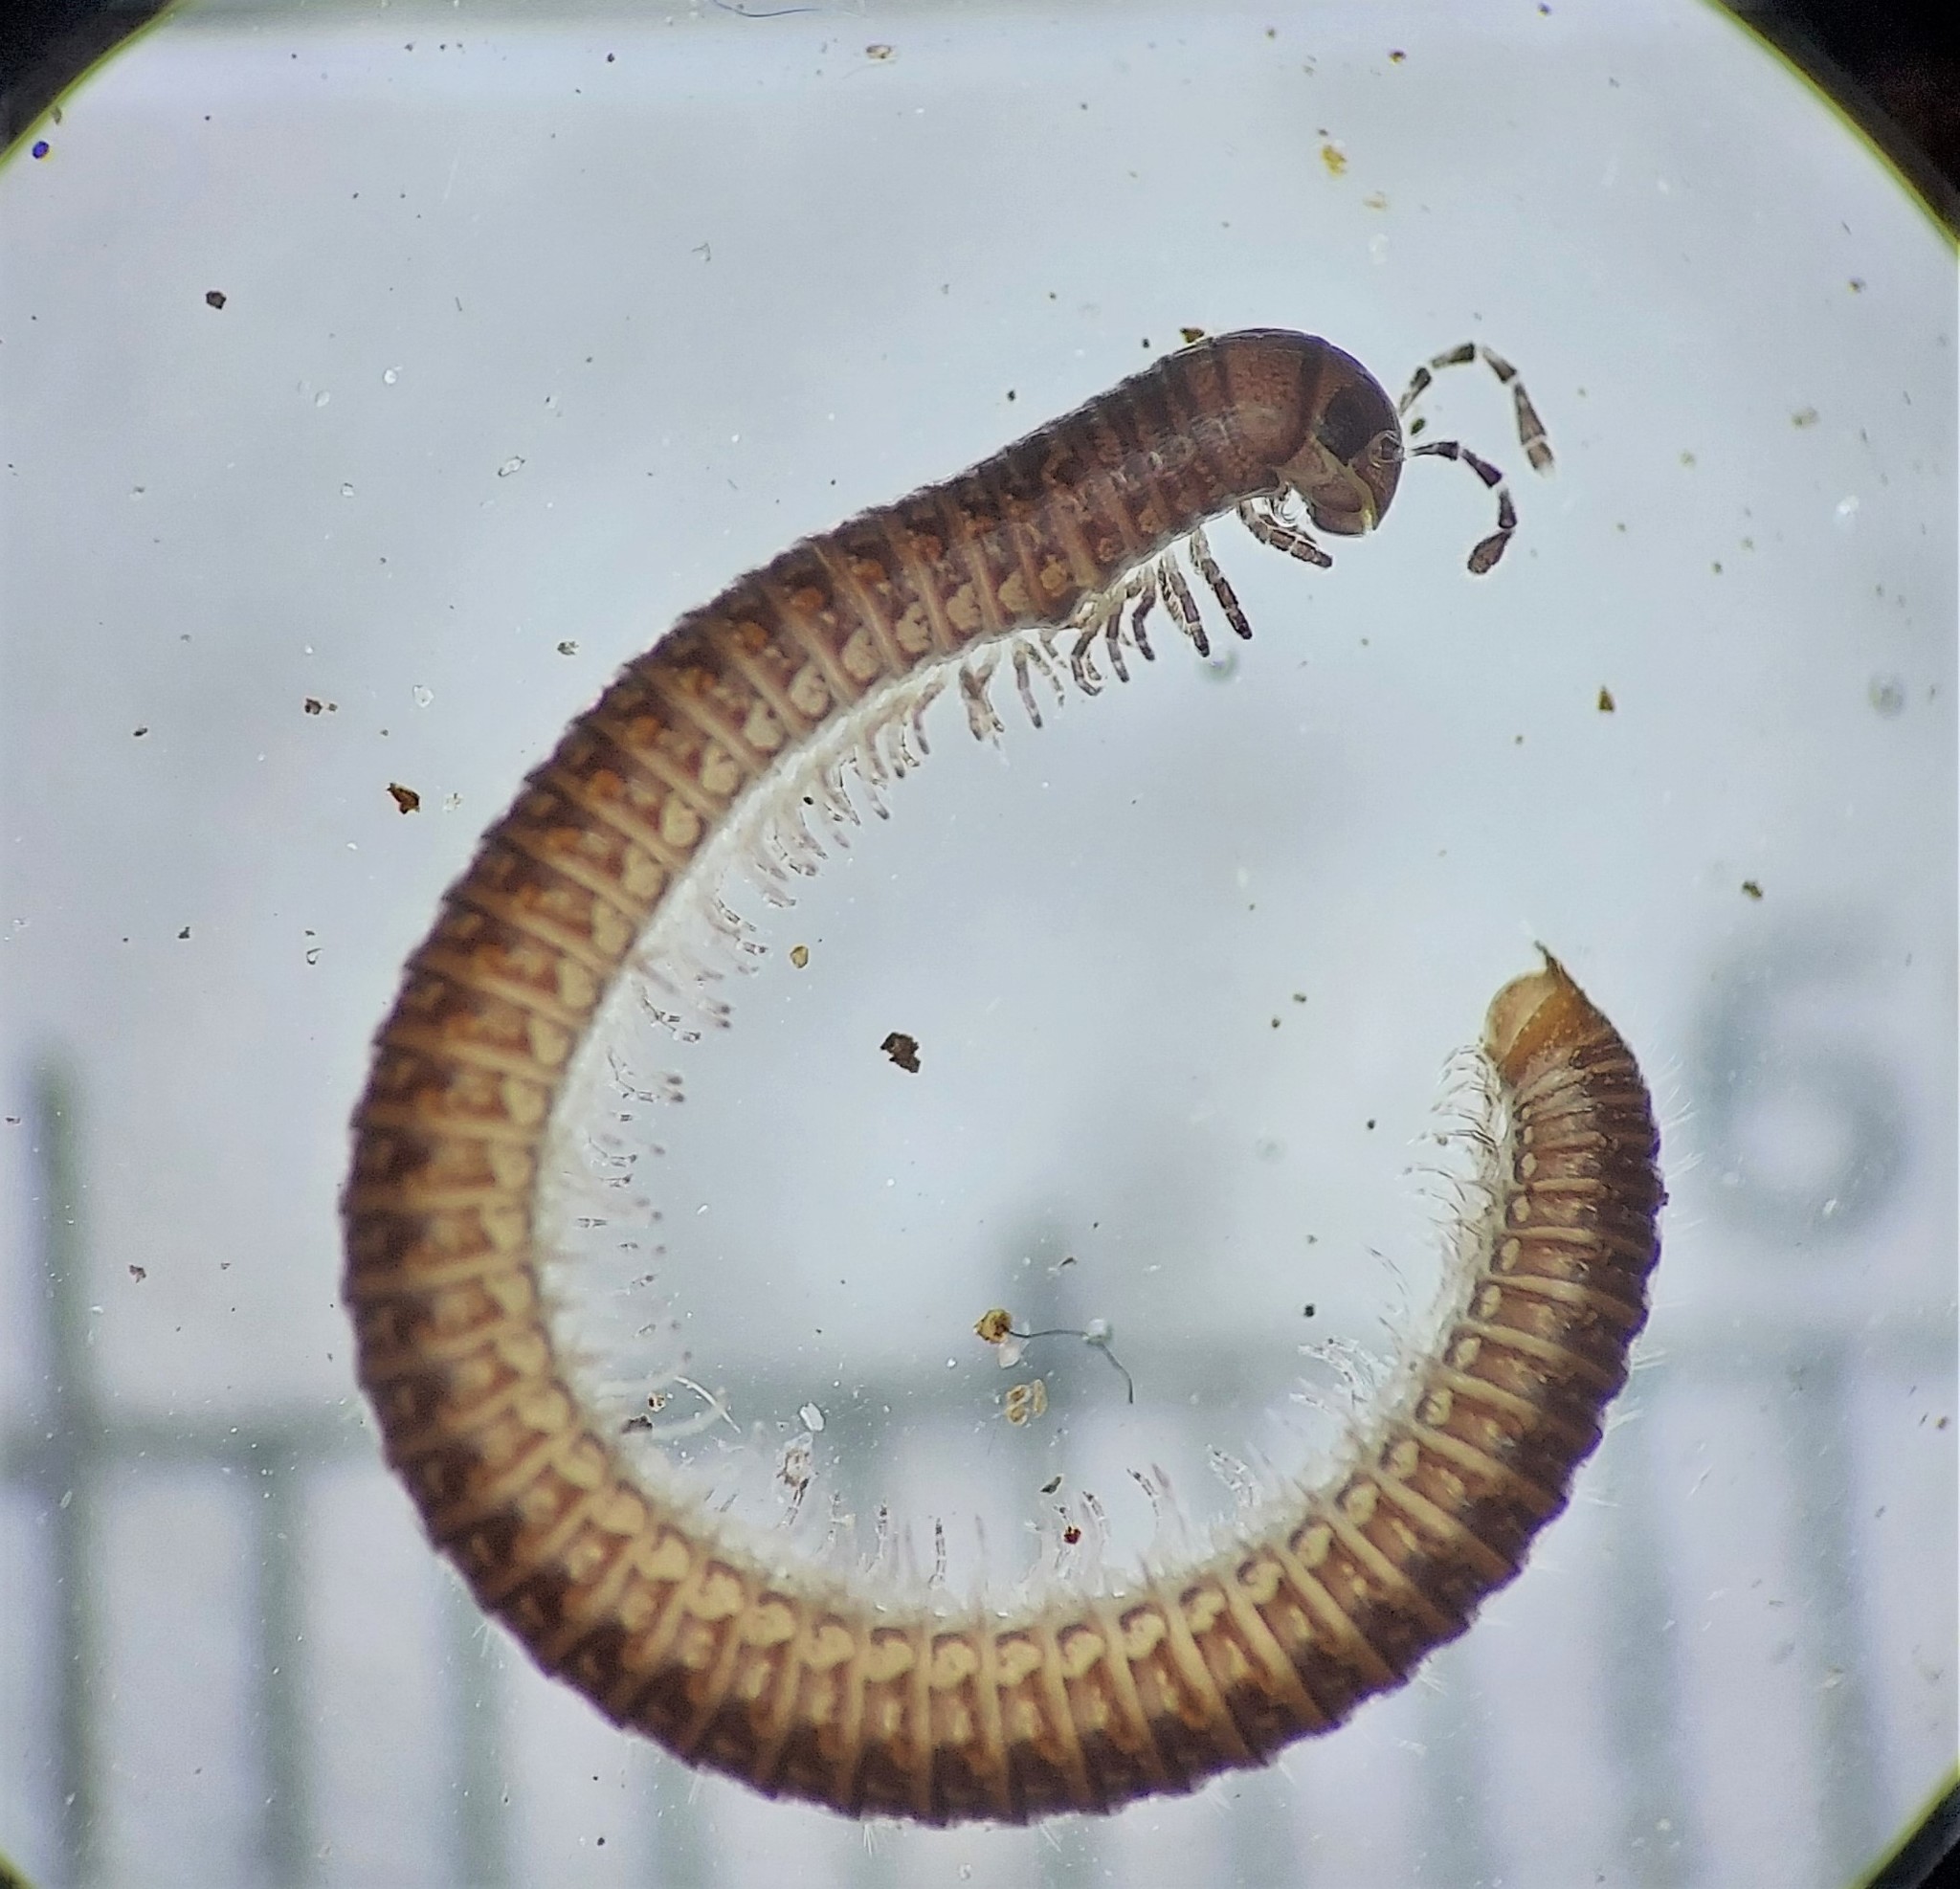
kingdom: Animalia
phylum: Arthropoda
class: Diplopoda
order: Julida
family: Julidae
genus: Ophyiulus
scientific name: Ophyiulus pilosus
